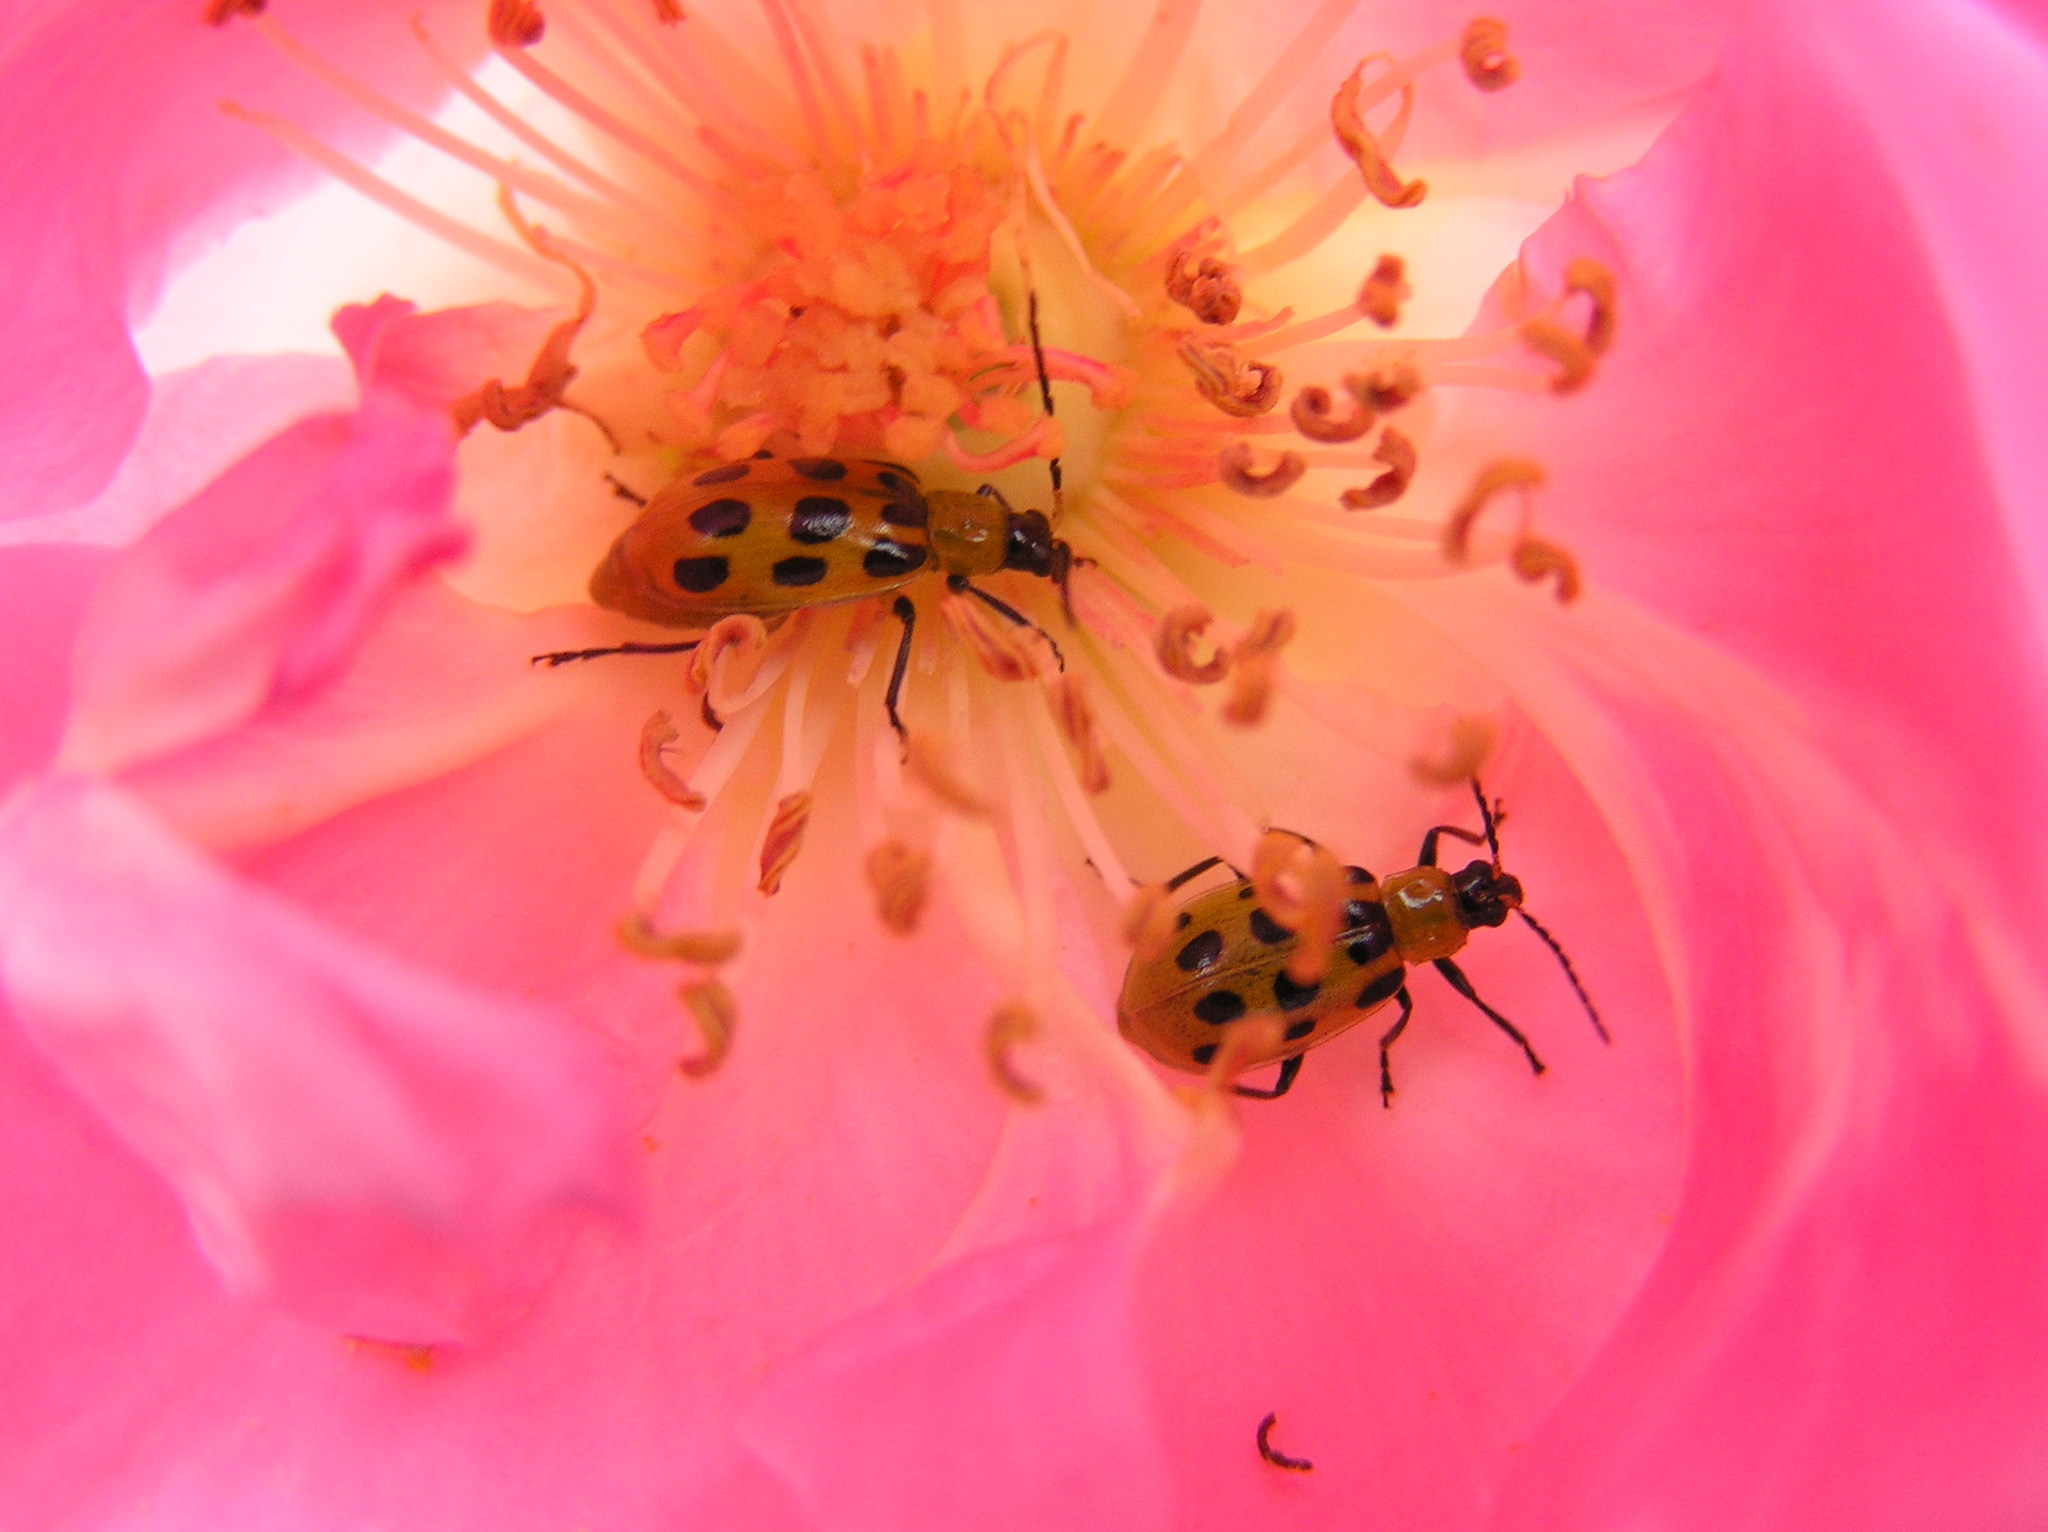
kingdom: Animalia
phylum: Arthropoda
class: Insecta
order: Coleoptera
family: Chrysomelidae
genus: Diabrotica
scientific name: Diabrotica undecimpunctata
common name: Spotted cucumber beetle
